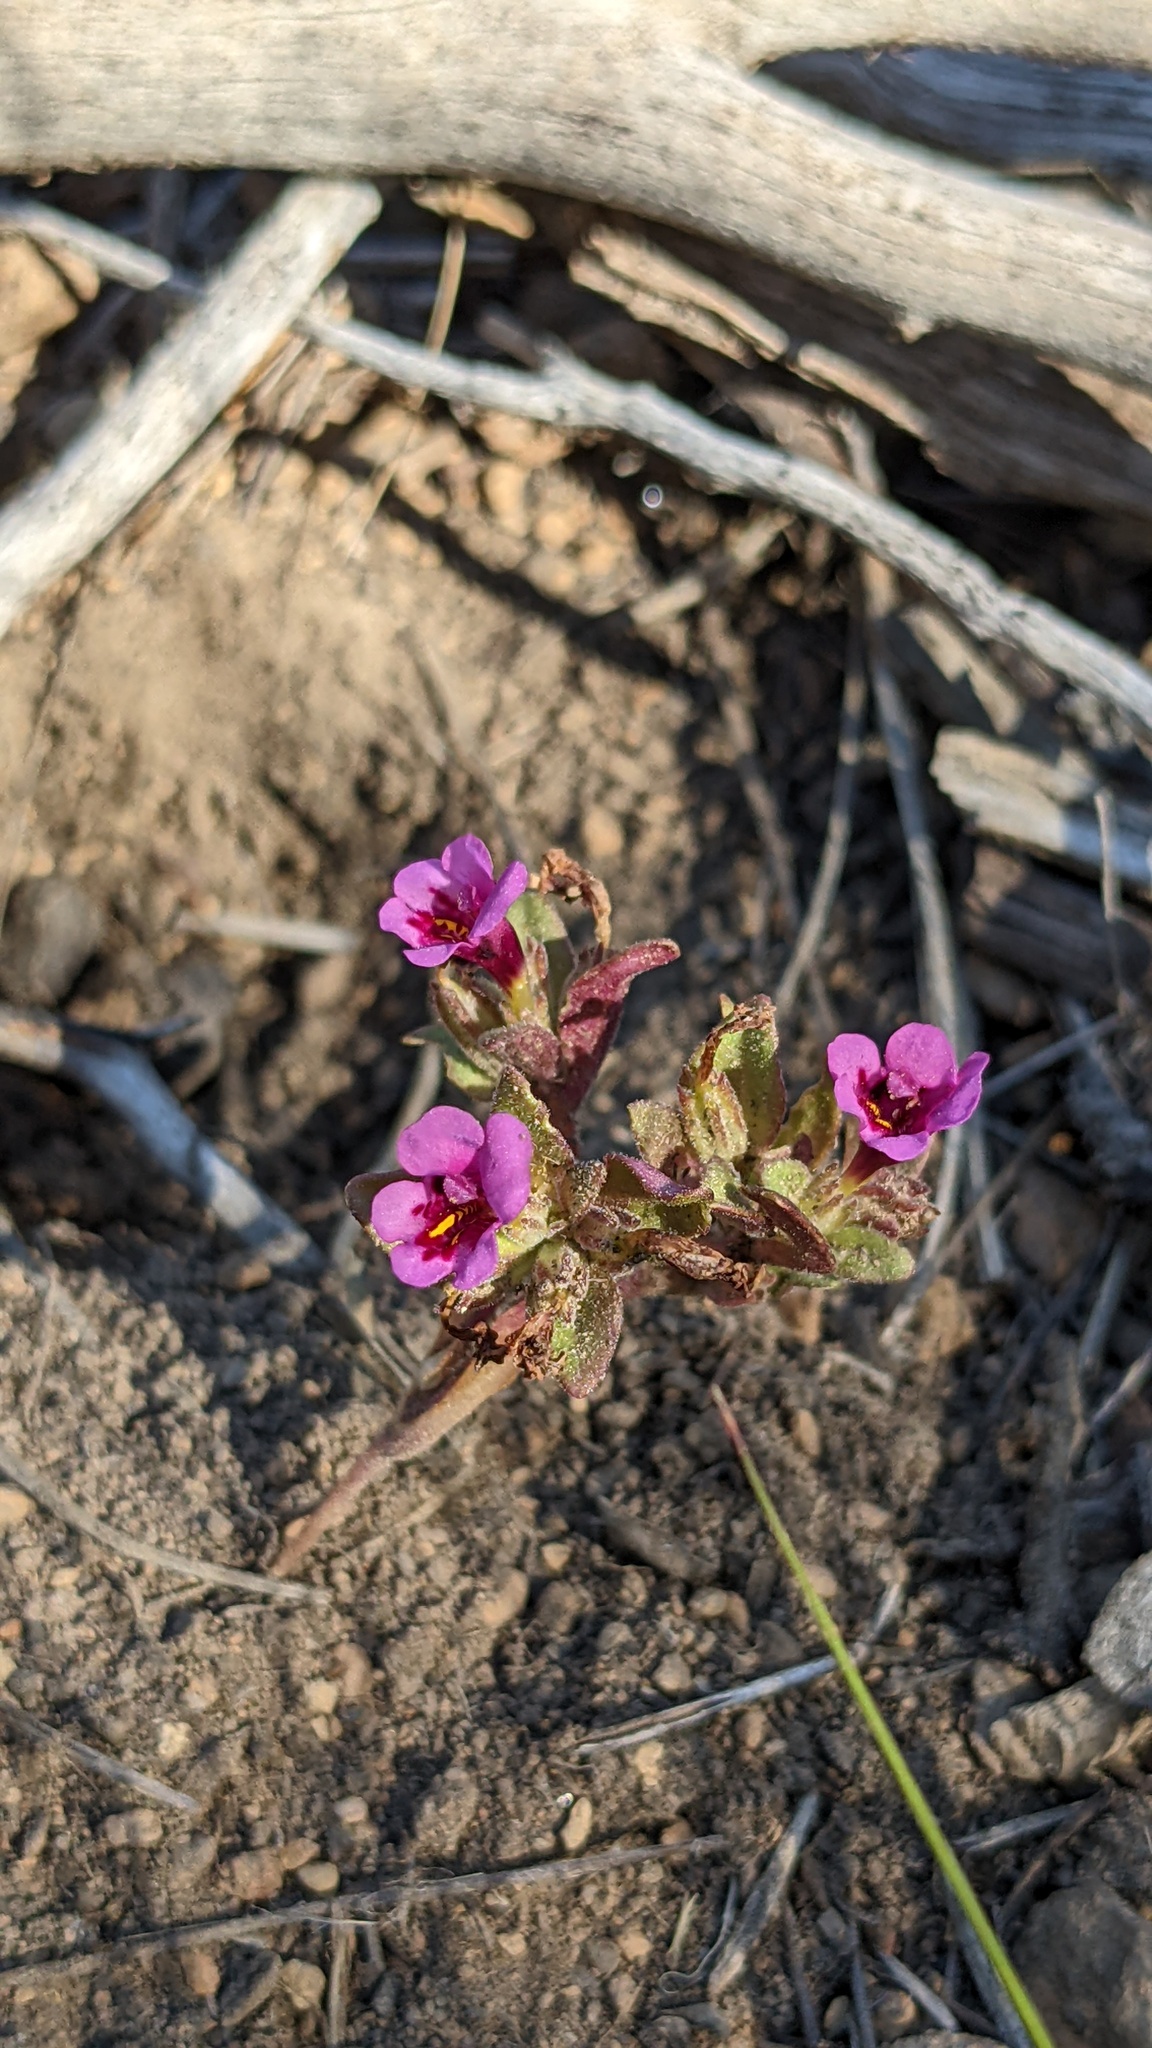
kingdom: Plantae
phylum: Tracheophyta
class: Magnoliopsida
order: Lamiales
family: Phrymaceae
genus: Diplacus
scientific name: Diplacus nanus
